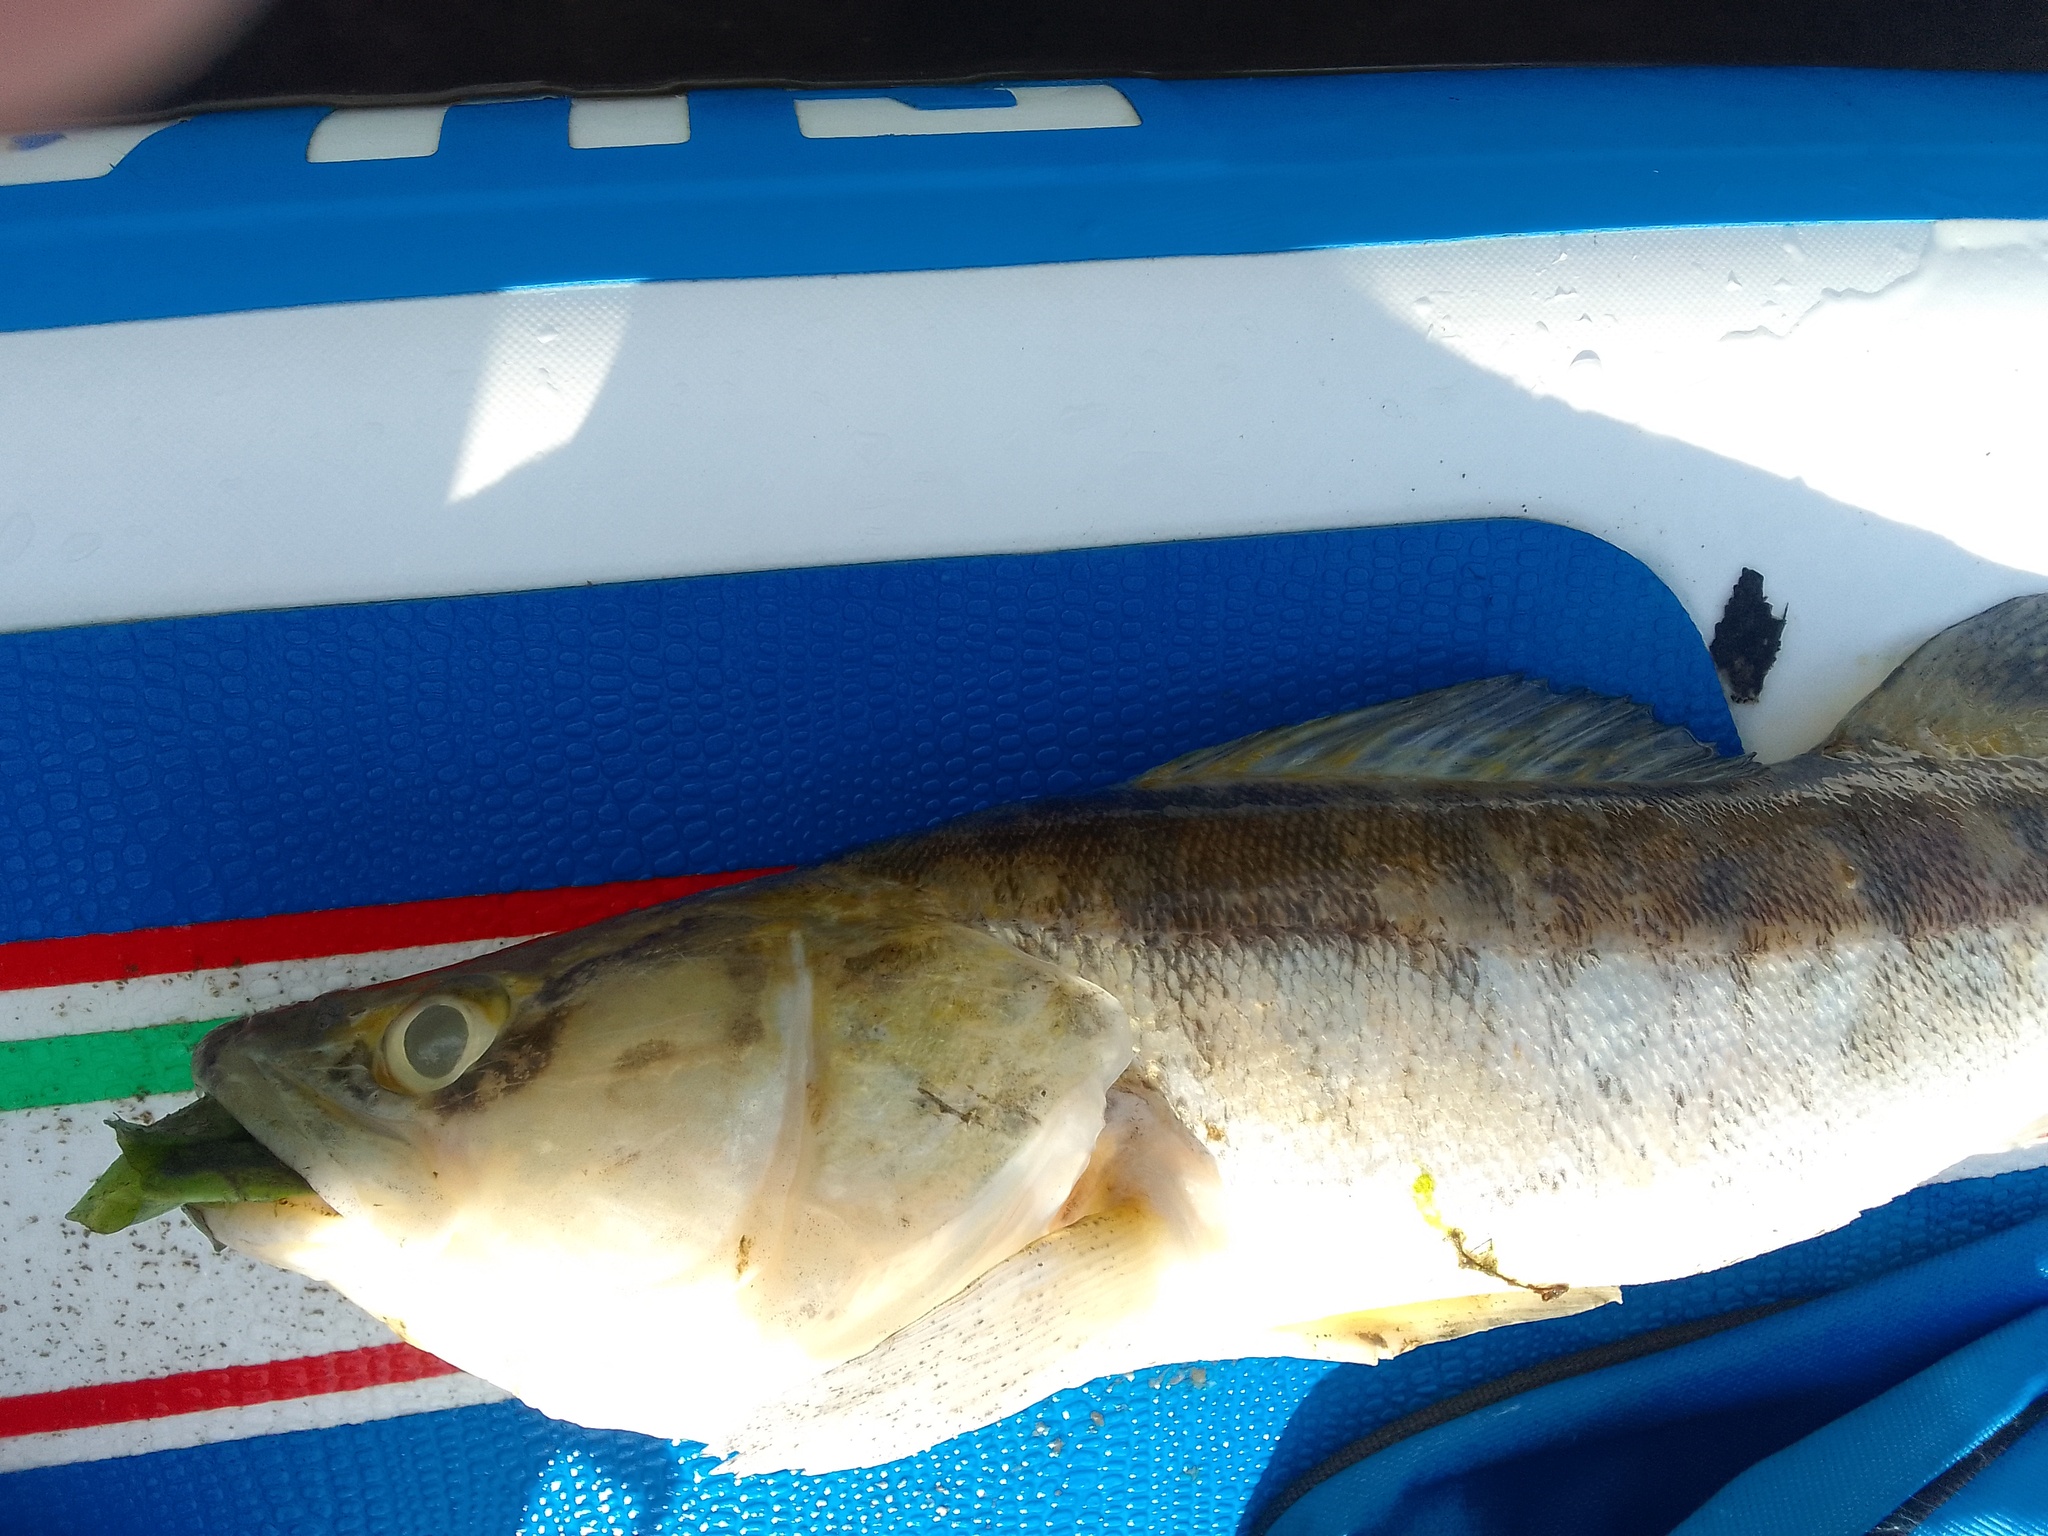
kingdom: Animalia
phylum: Chordata
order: Perciformes
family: Percidae
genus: Sander
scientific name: Sander lucioperca
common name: Pikeperch
